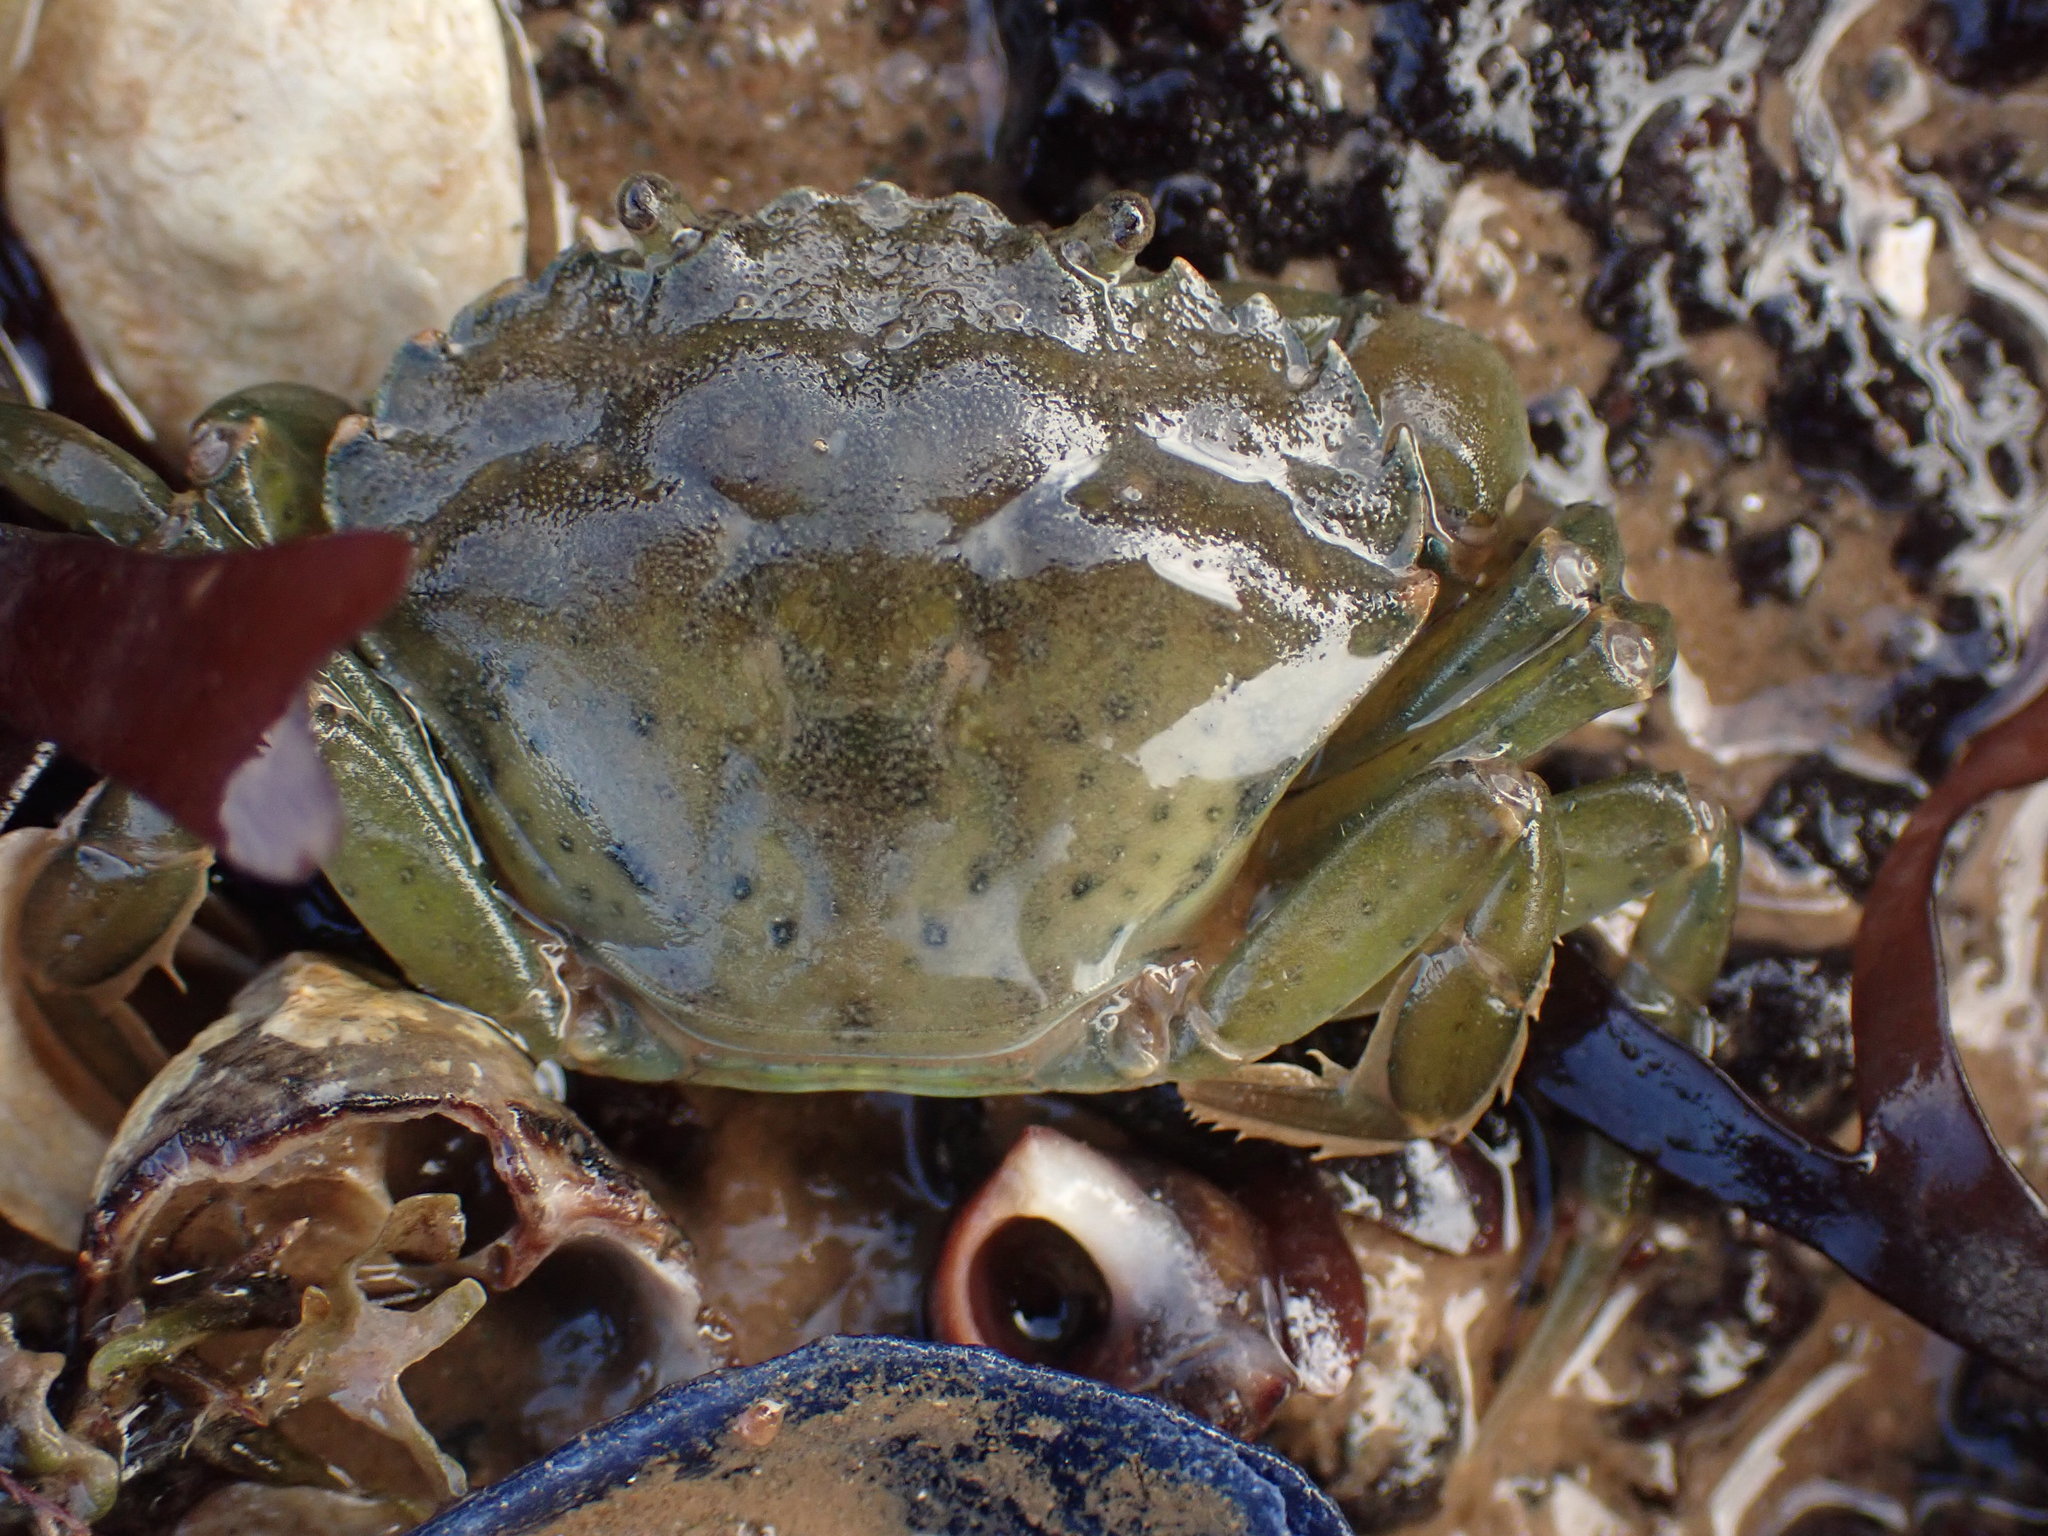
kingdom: Animalia
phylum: Arthropoda
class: Malacostraca
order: Decapoda
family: Carcinidae
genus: Carcinus
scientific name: Carcinus maenas
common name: European green crab
